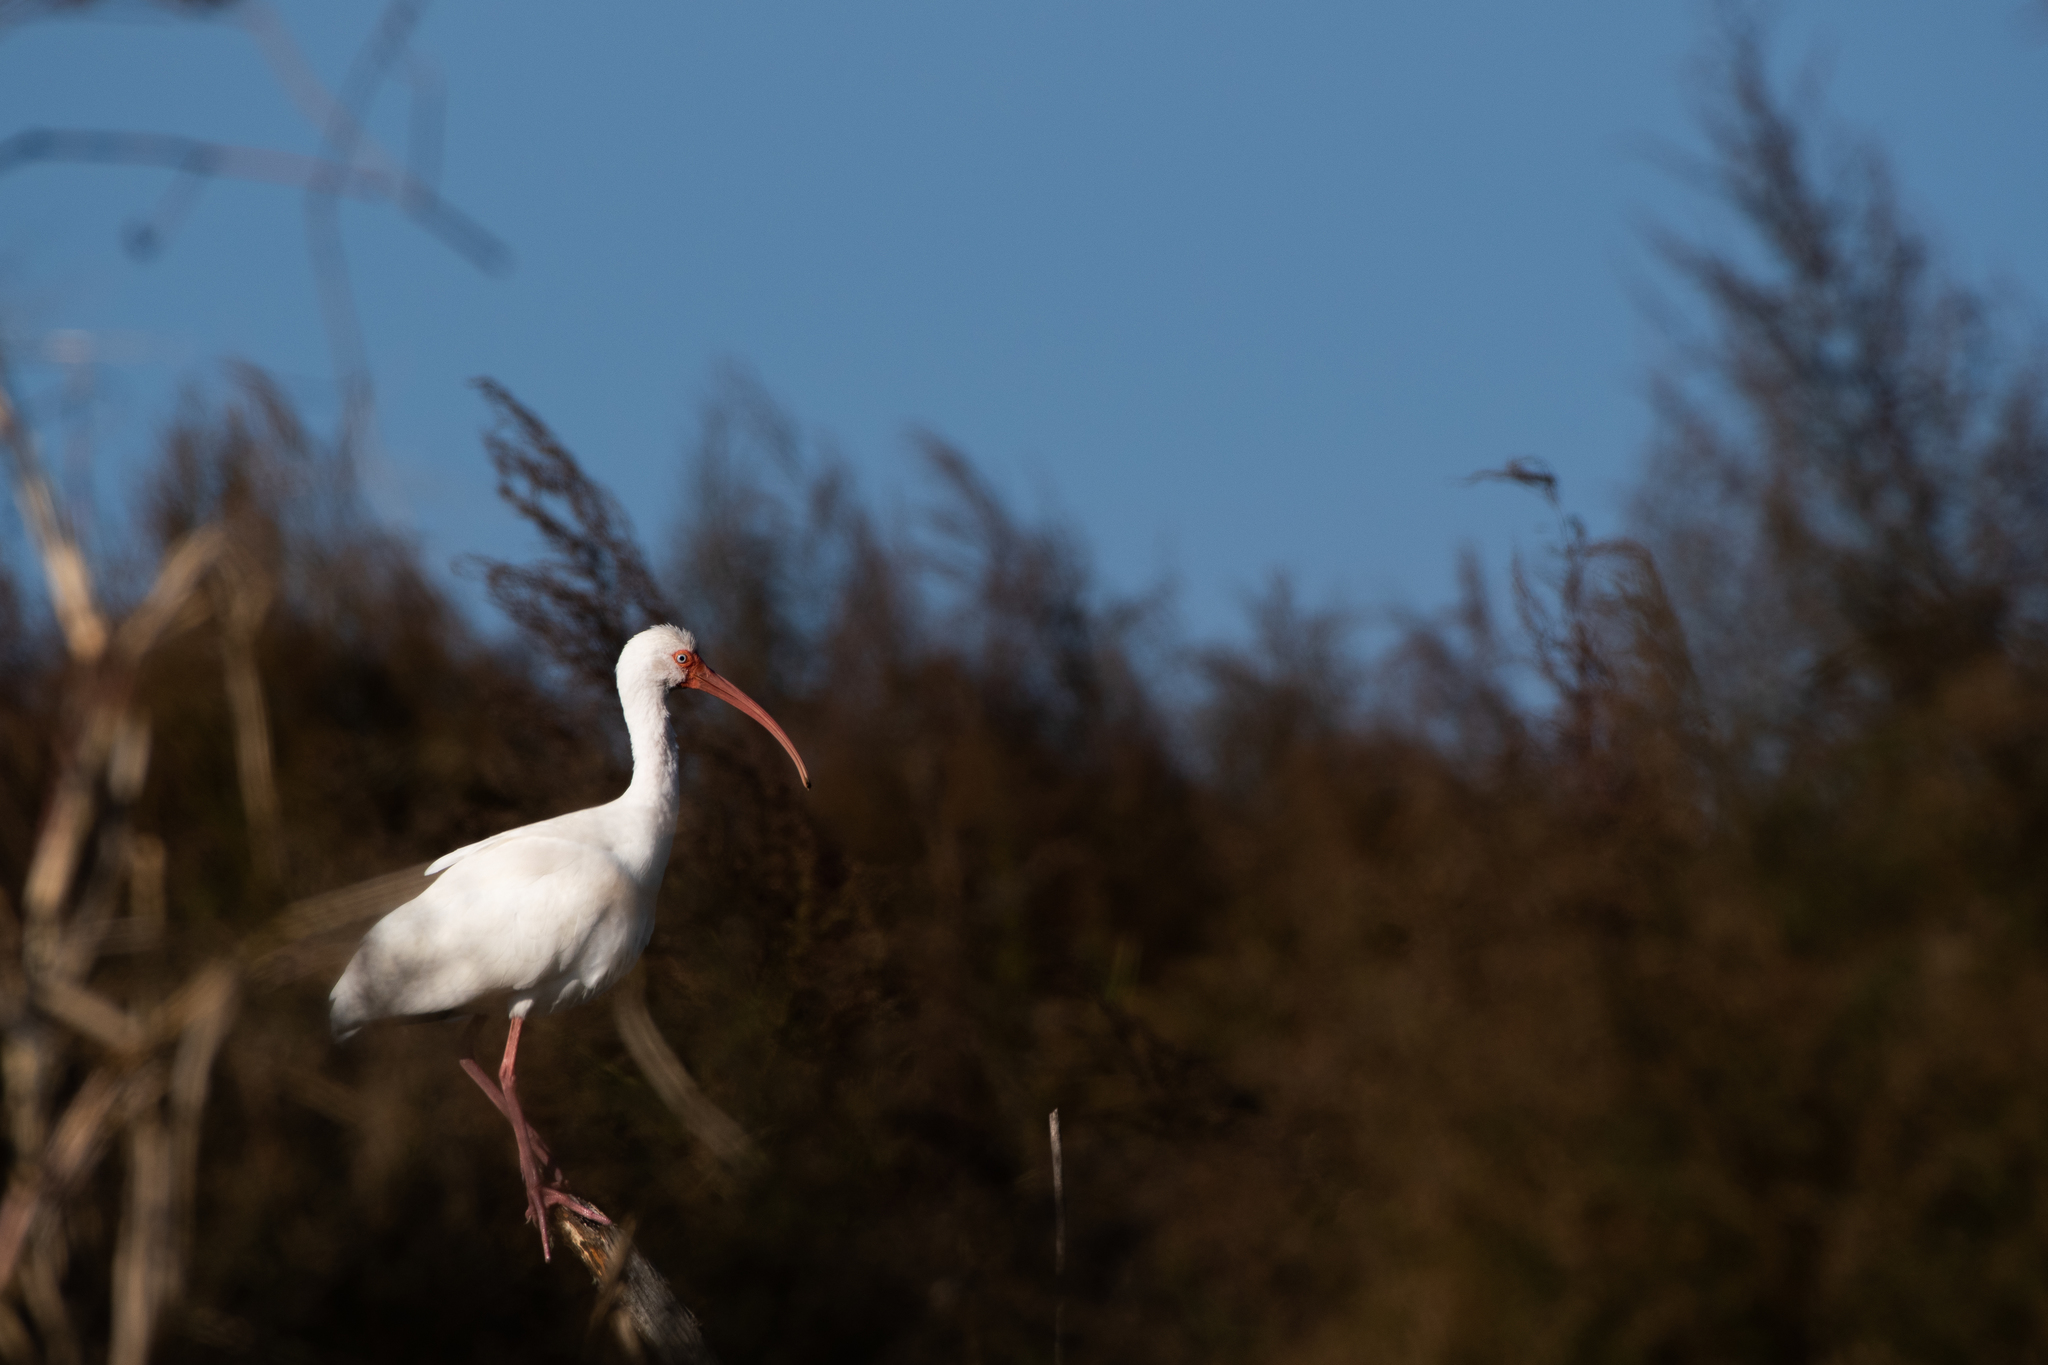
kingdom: Animalia
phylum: Chordata
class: Aves
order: Pelecaniformes
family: Threskiornithidae
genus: Eudocimus
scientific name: Eudocimus albus
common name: White ibis
